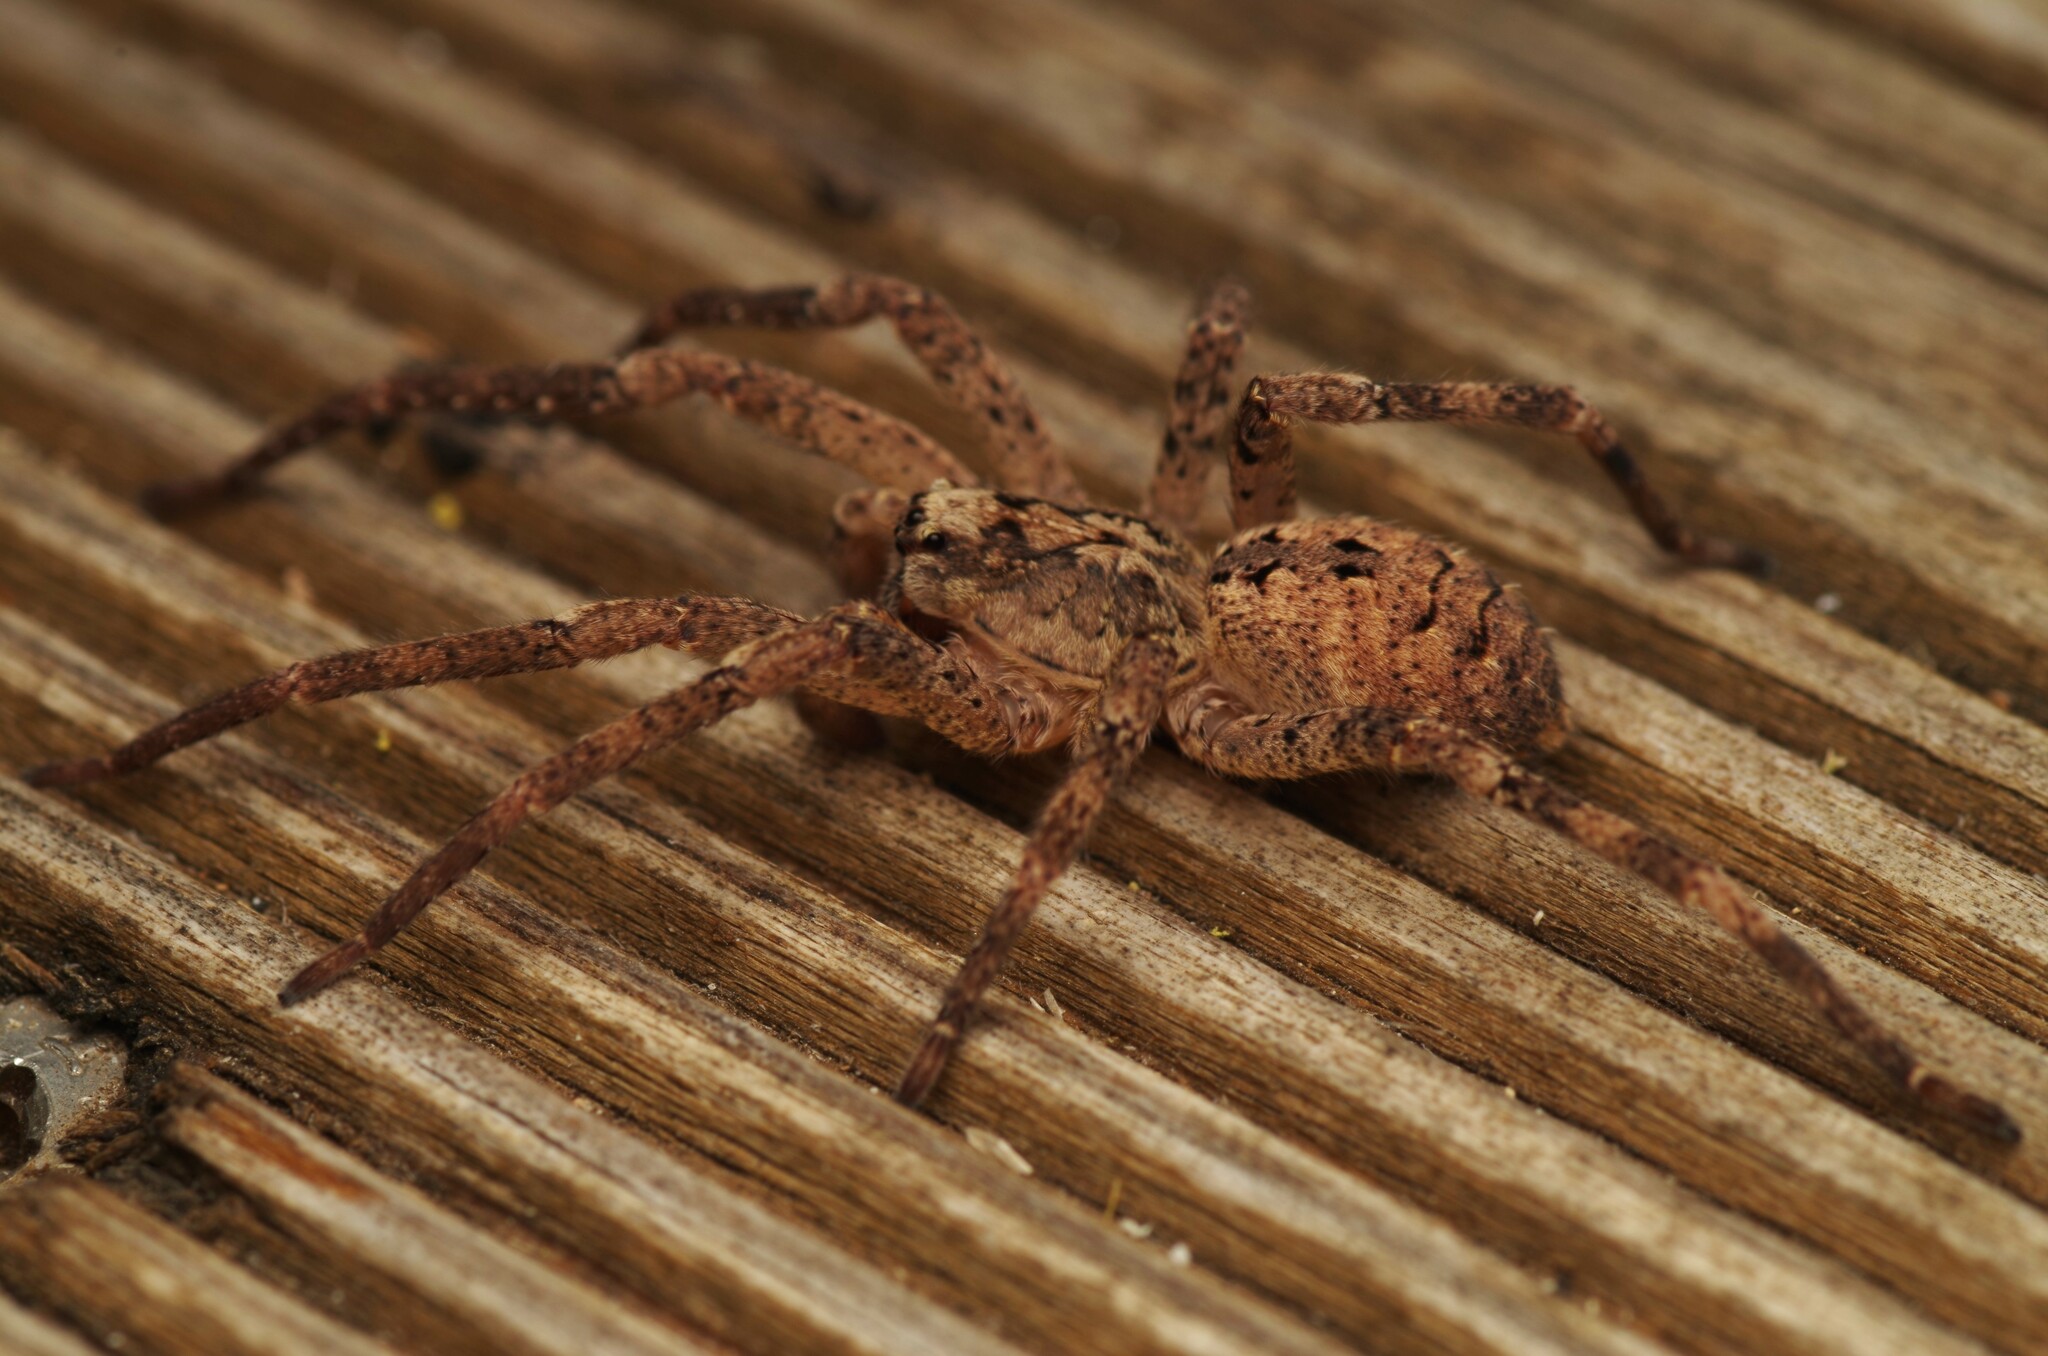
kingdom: Animalia
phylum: Arthropoda
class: Arachnida
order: Araneae
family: Zoropsidae
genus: Zoropsis
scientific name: Zoropsis spinimana
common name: Zoropsid spider
